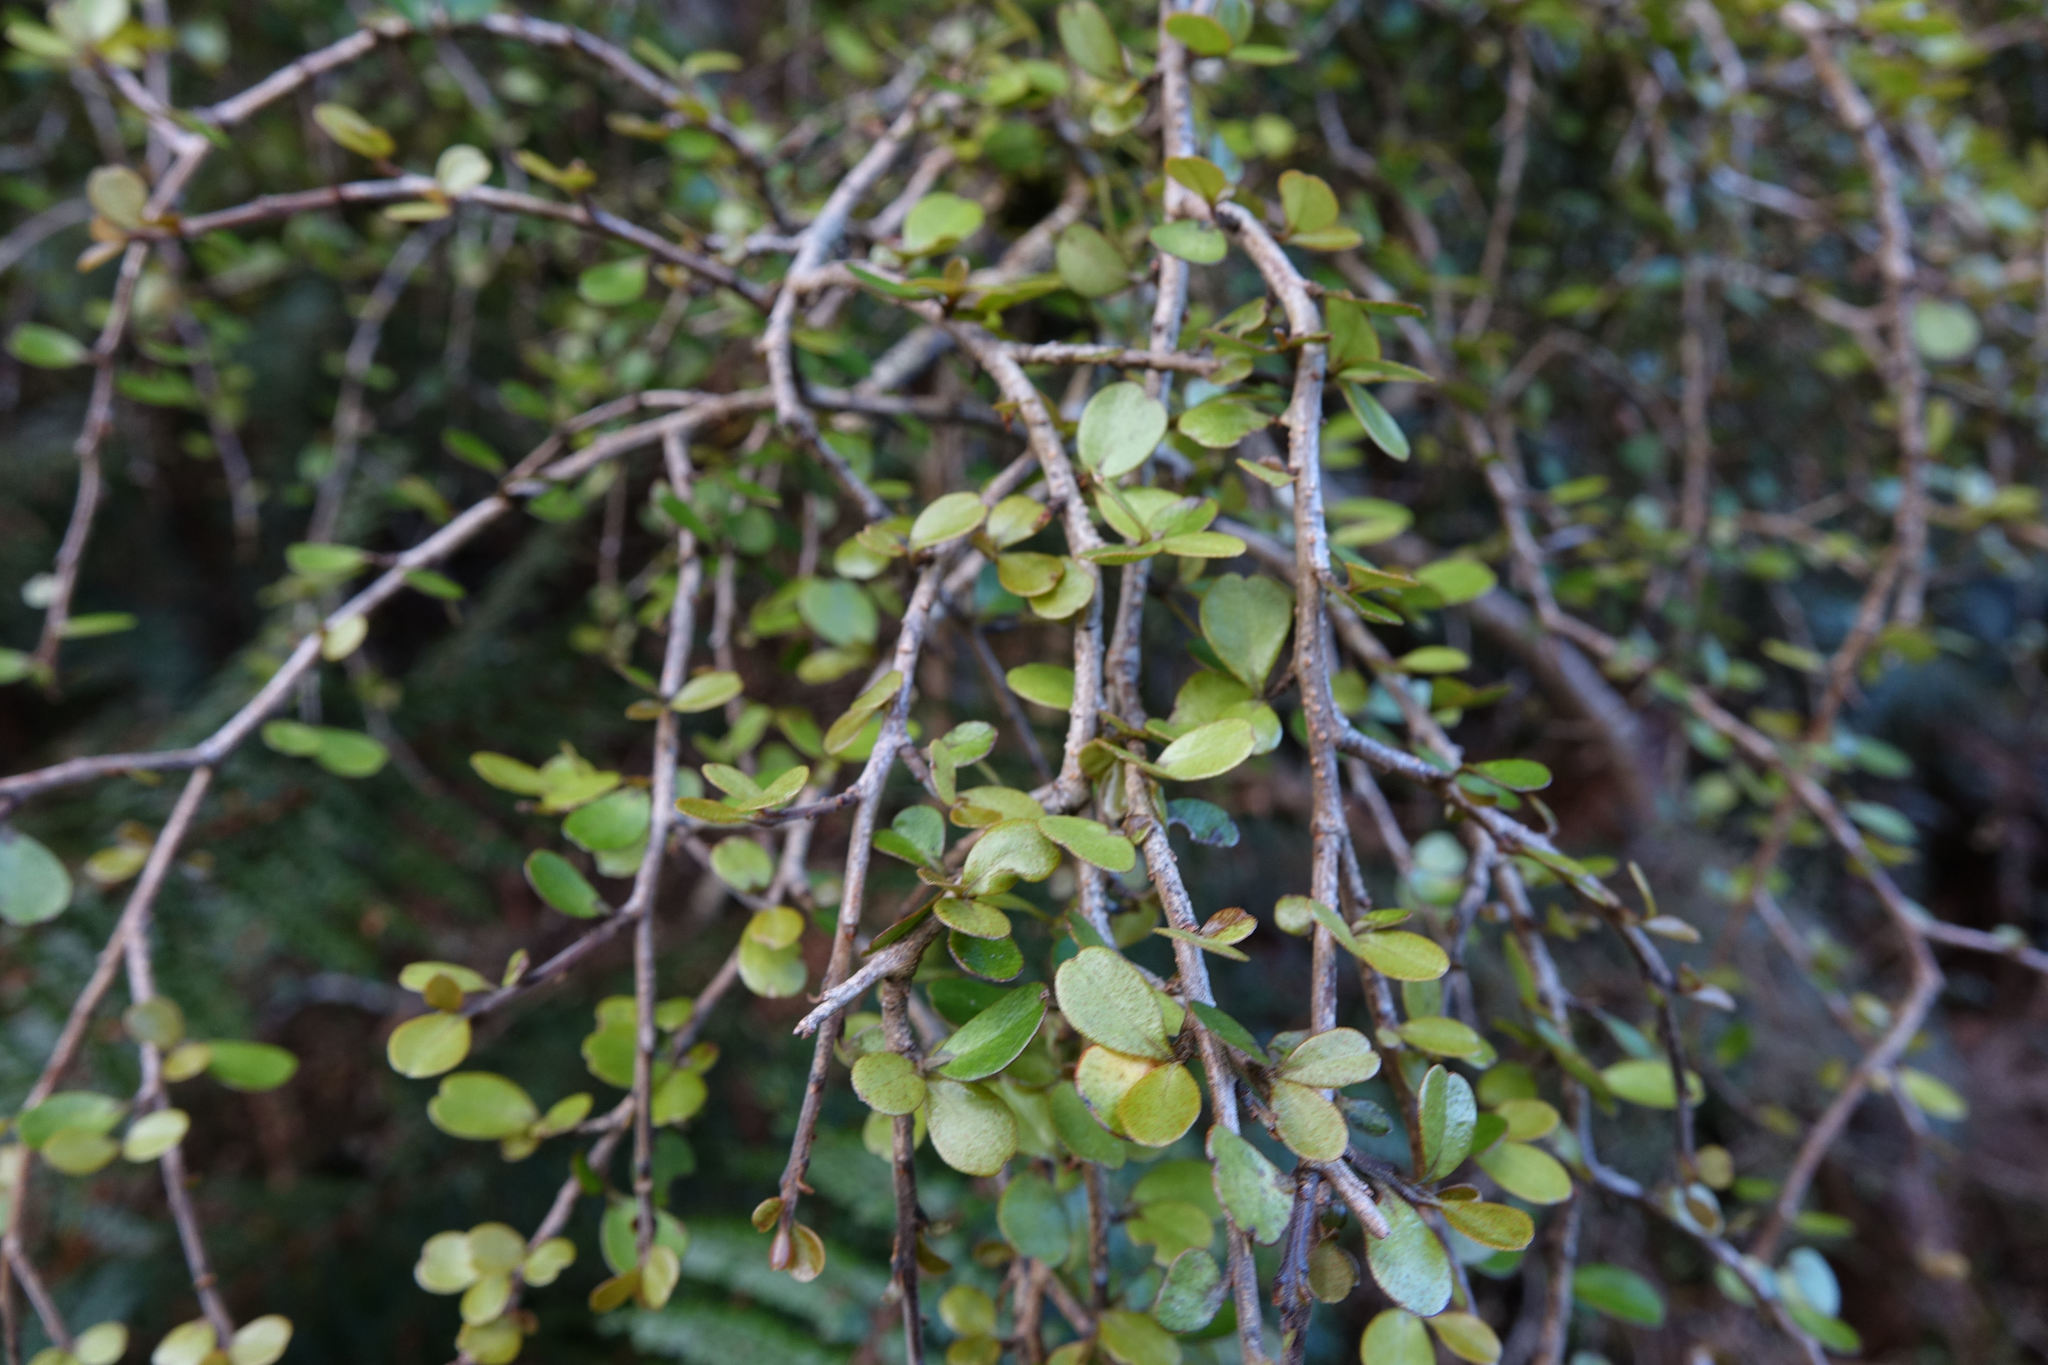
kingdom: Plantae
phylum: Tracheophyta
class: Magnoliopsida
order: Ericales
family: Primulaceae
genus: Myrsine
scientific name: Myrsine divaricata
